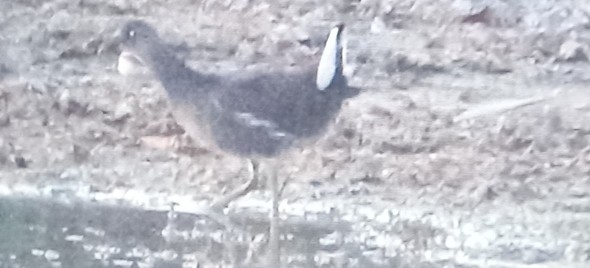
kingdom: Animalia
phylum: Chordata
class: Aves
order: Gruiformes
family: Rallidae
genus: Gallinula
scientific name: Gallinula chloropus
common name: Common moorhen
